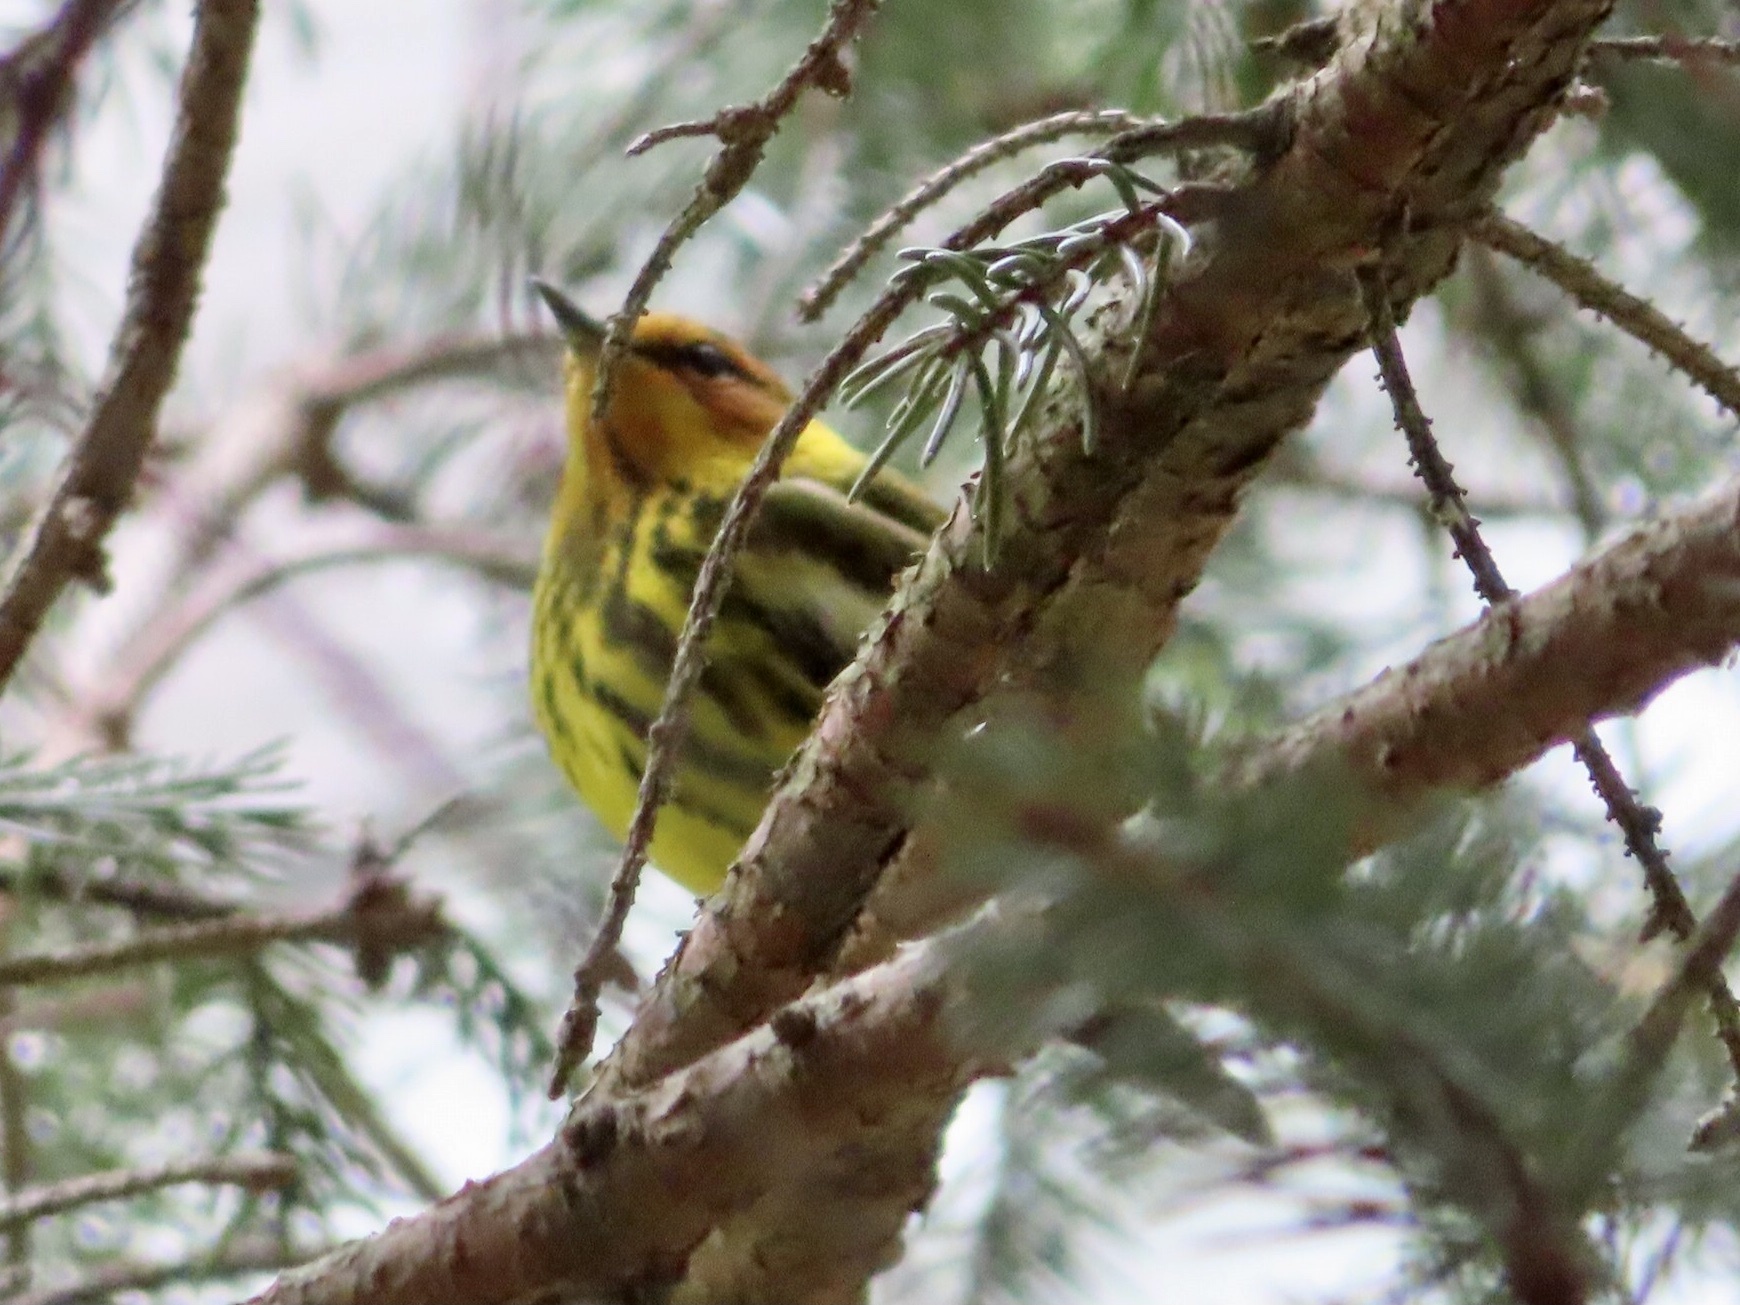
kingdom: Animalia
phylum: Chordata
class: Aves
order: Passeriformes
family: Parulidae
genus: Setophaga
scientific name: Setophaga tigrina
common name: Cape may warbler
